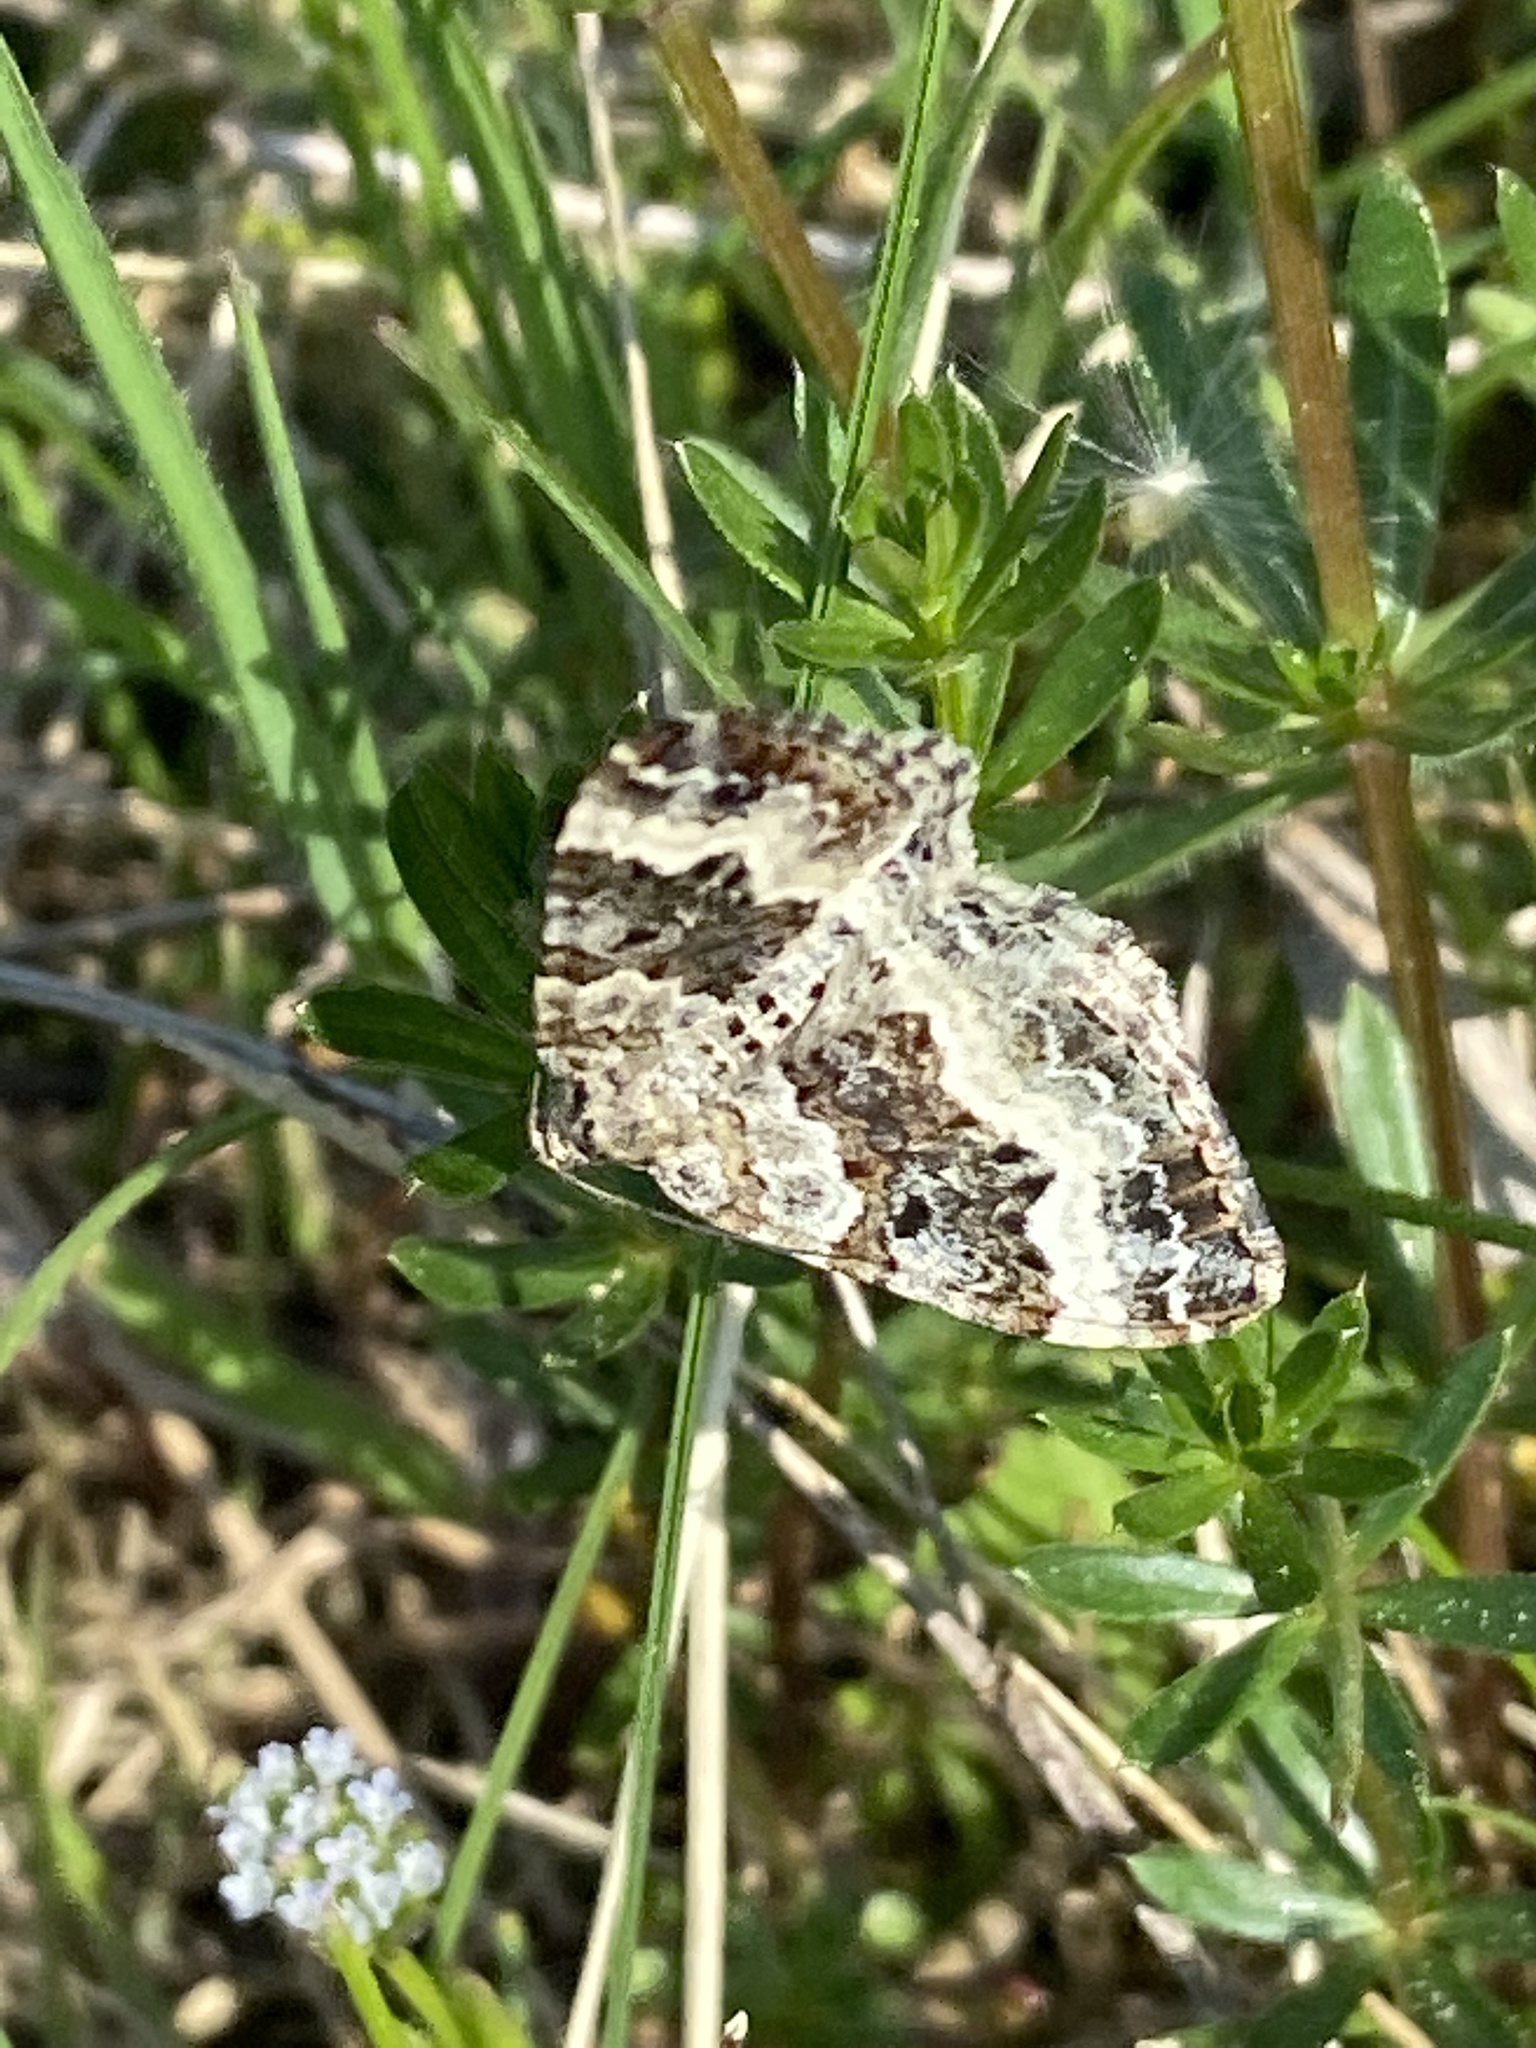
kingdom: Animalia
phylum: Arthropoda
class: Insecta
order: Lepidoptera
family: Geometridae
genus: Epirrhoe
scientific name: Epirrhoe alternata
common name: Common carpet
